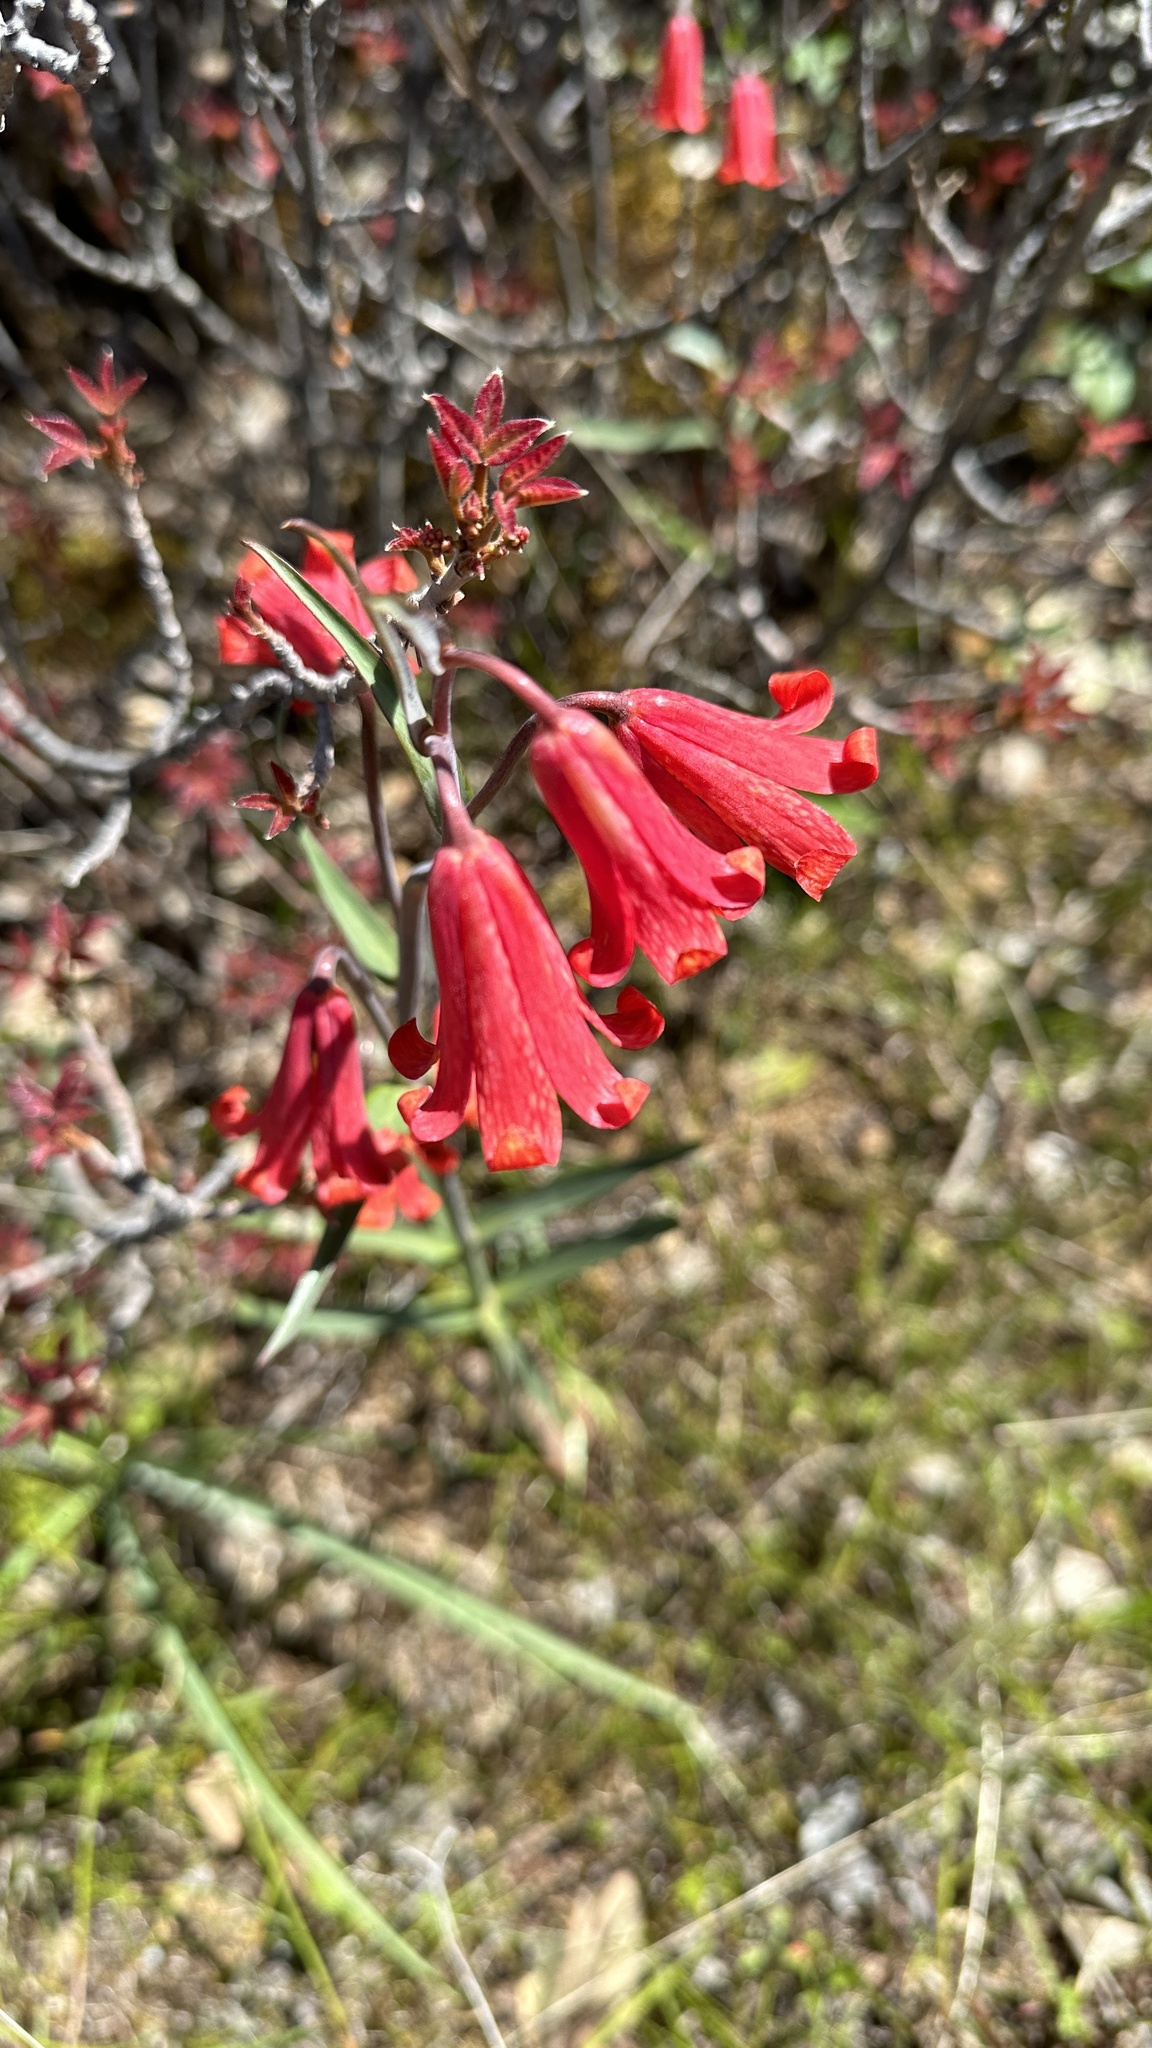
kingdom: Plantae
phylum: Tracheophyta
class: Liliopsida
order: Liliales
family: Liliaceae
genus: Fritillaria
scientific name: Fritillaria recurva
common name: Scarlet fritillary
